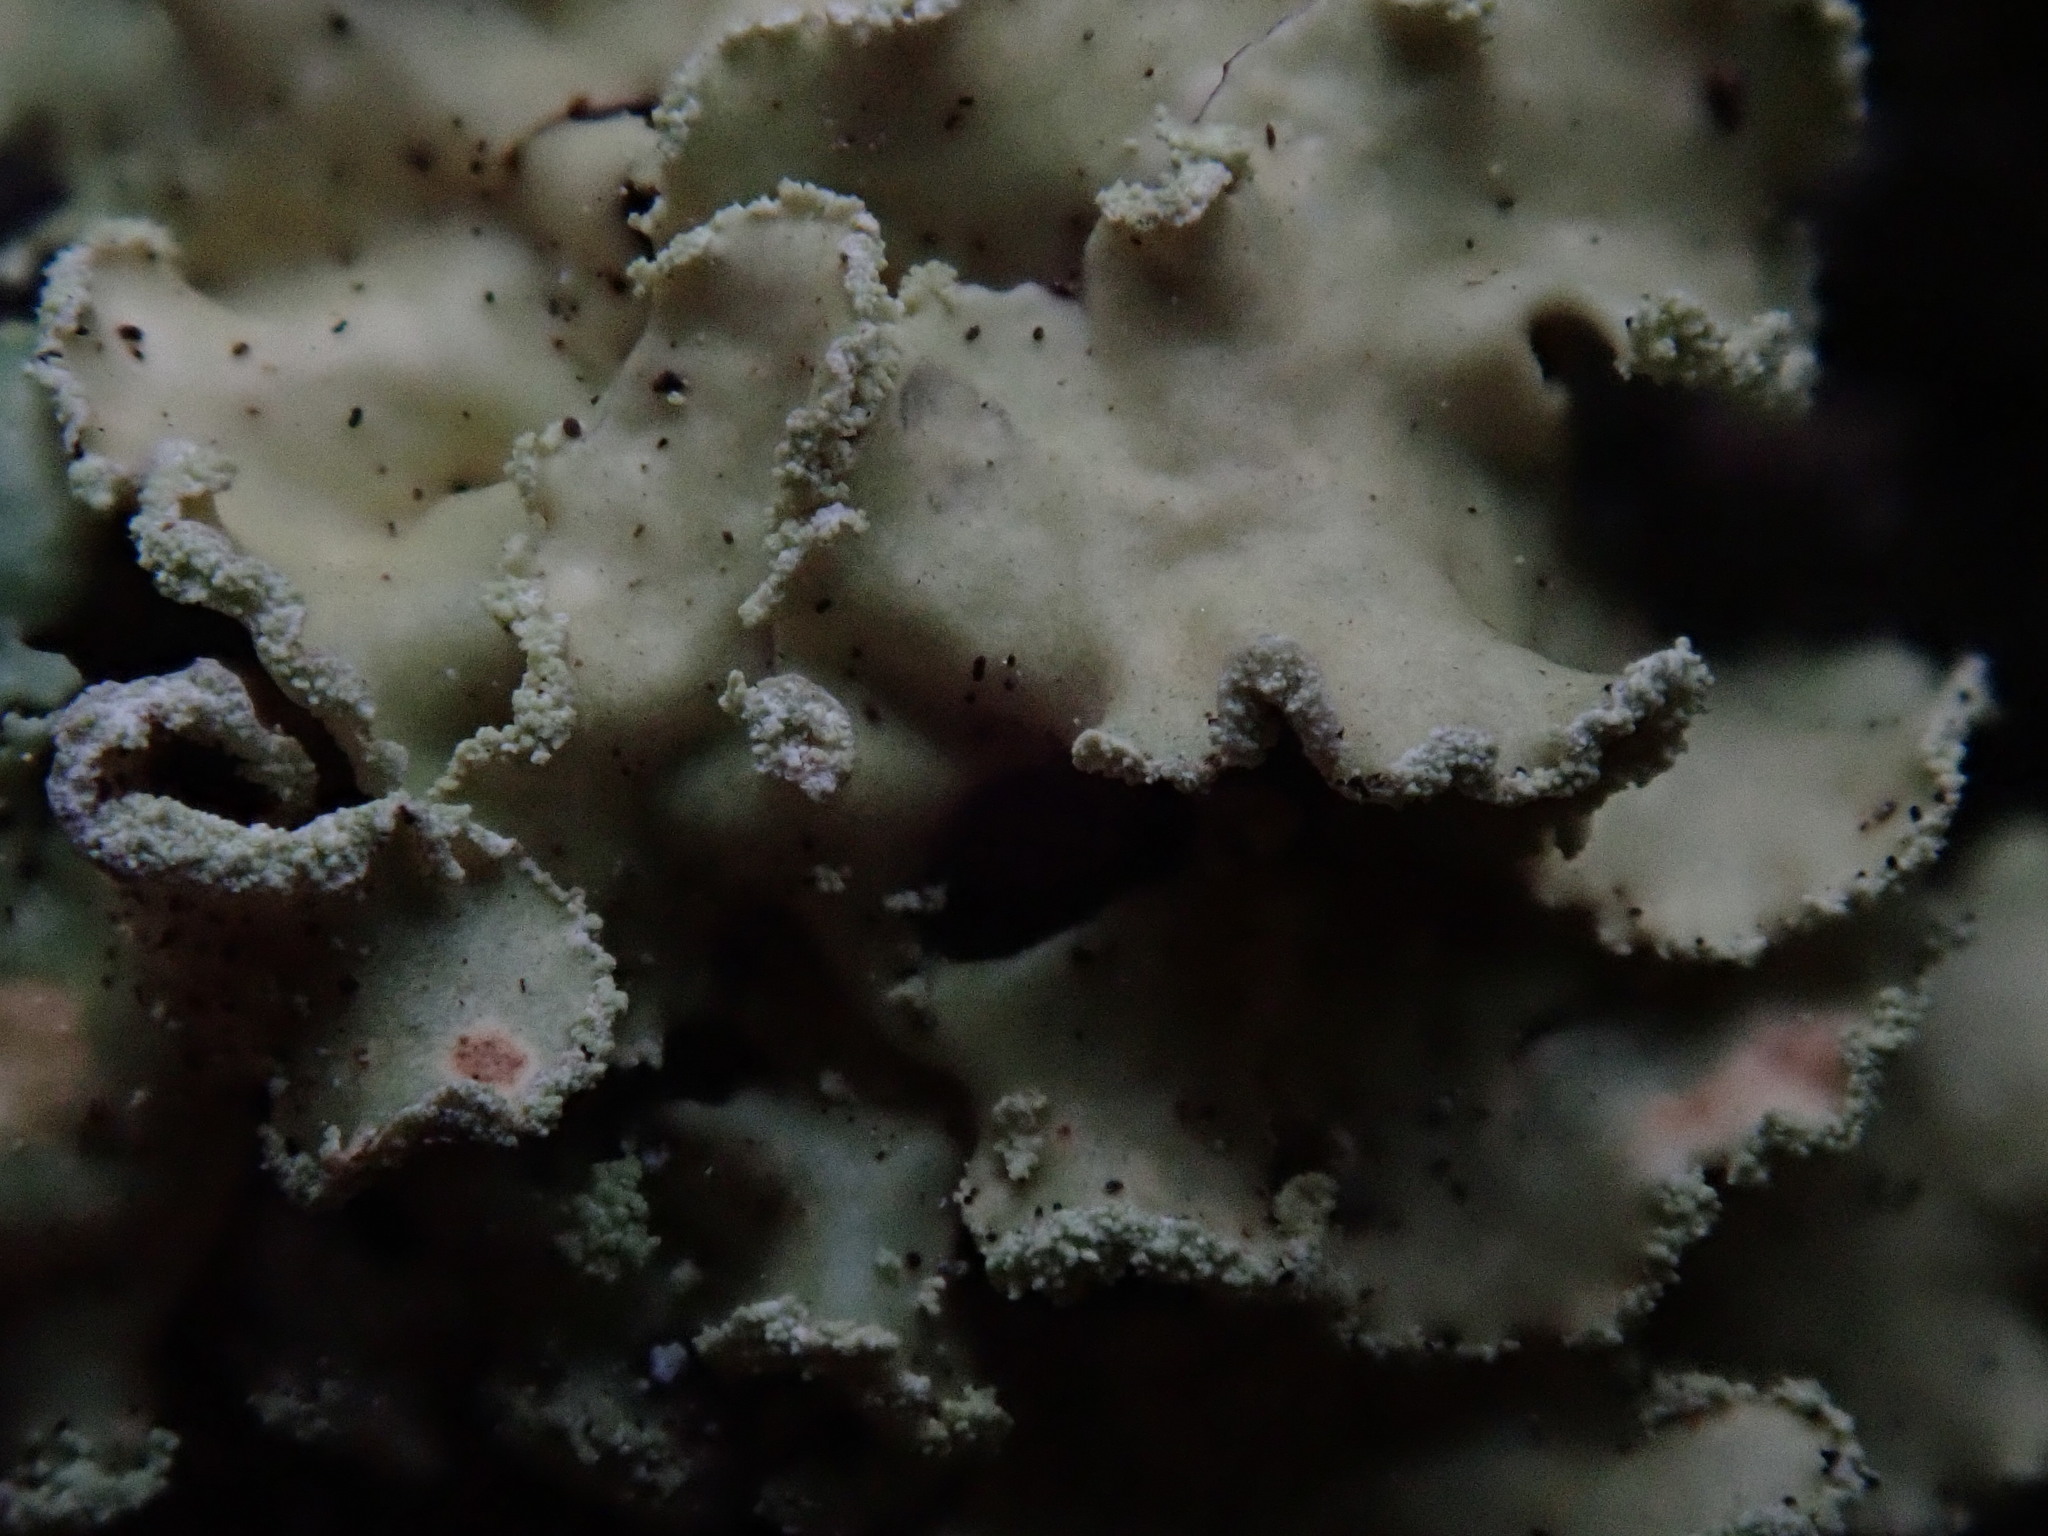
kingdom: Fungi
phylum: Ascomycota
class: Lecanoromycetes
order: Lecanorales
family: Parmeliaceae
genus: Usnocetraria
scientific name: Usnocetraria oakesiana
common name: Yellow ribbon lichen
